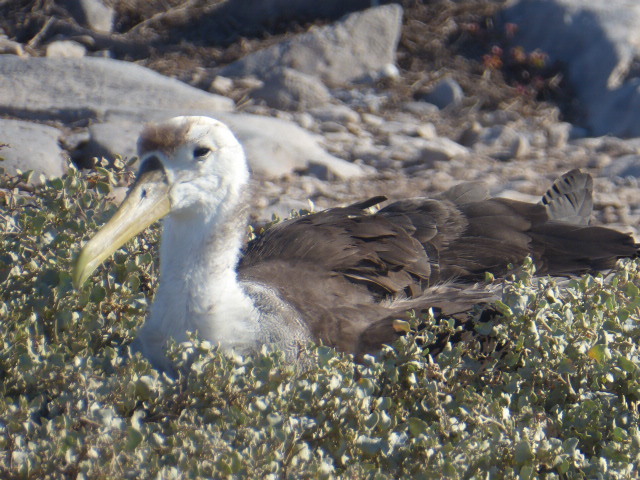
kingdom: Animalia
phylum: Chordata
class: Aves
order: Procellariiformes
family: Diomedeidae
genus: Phoebastria
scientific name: Phoebastria irrorata
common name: Waved albatross
